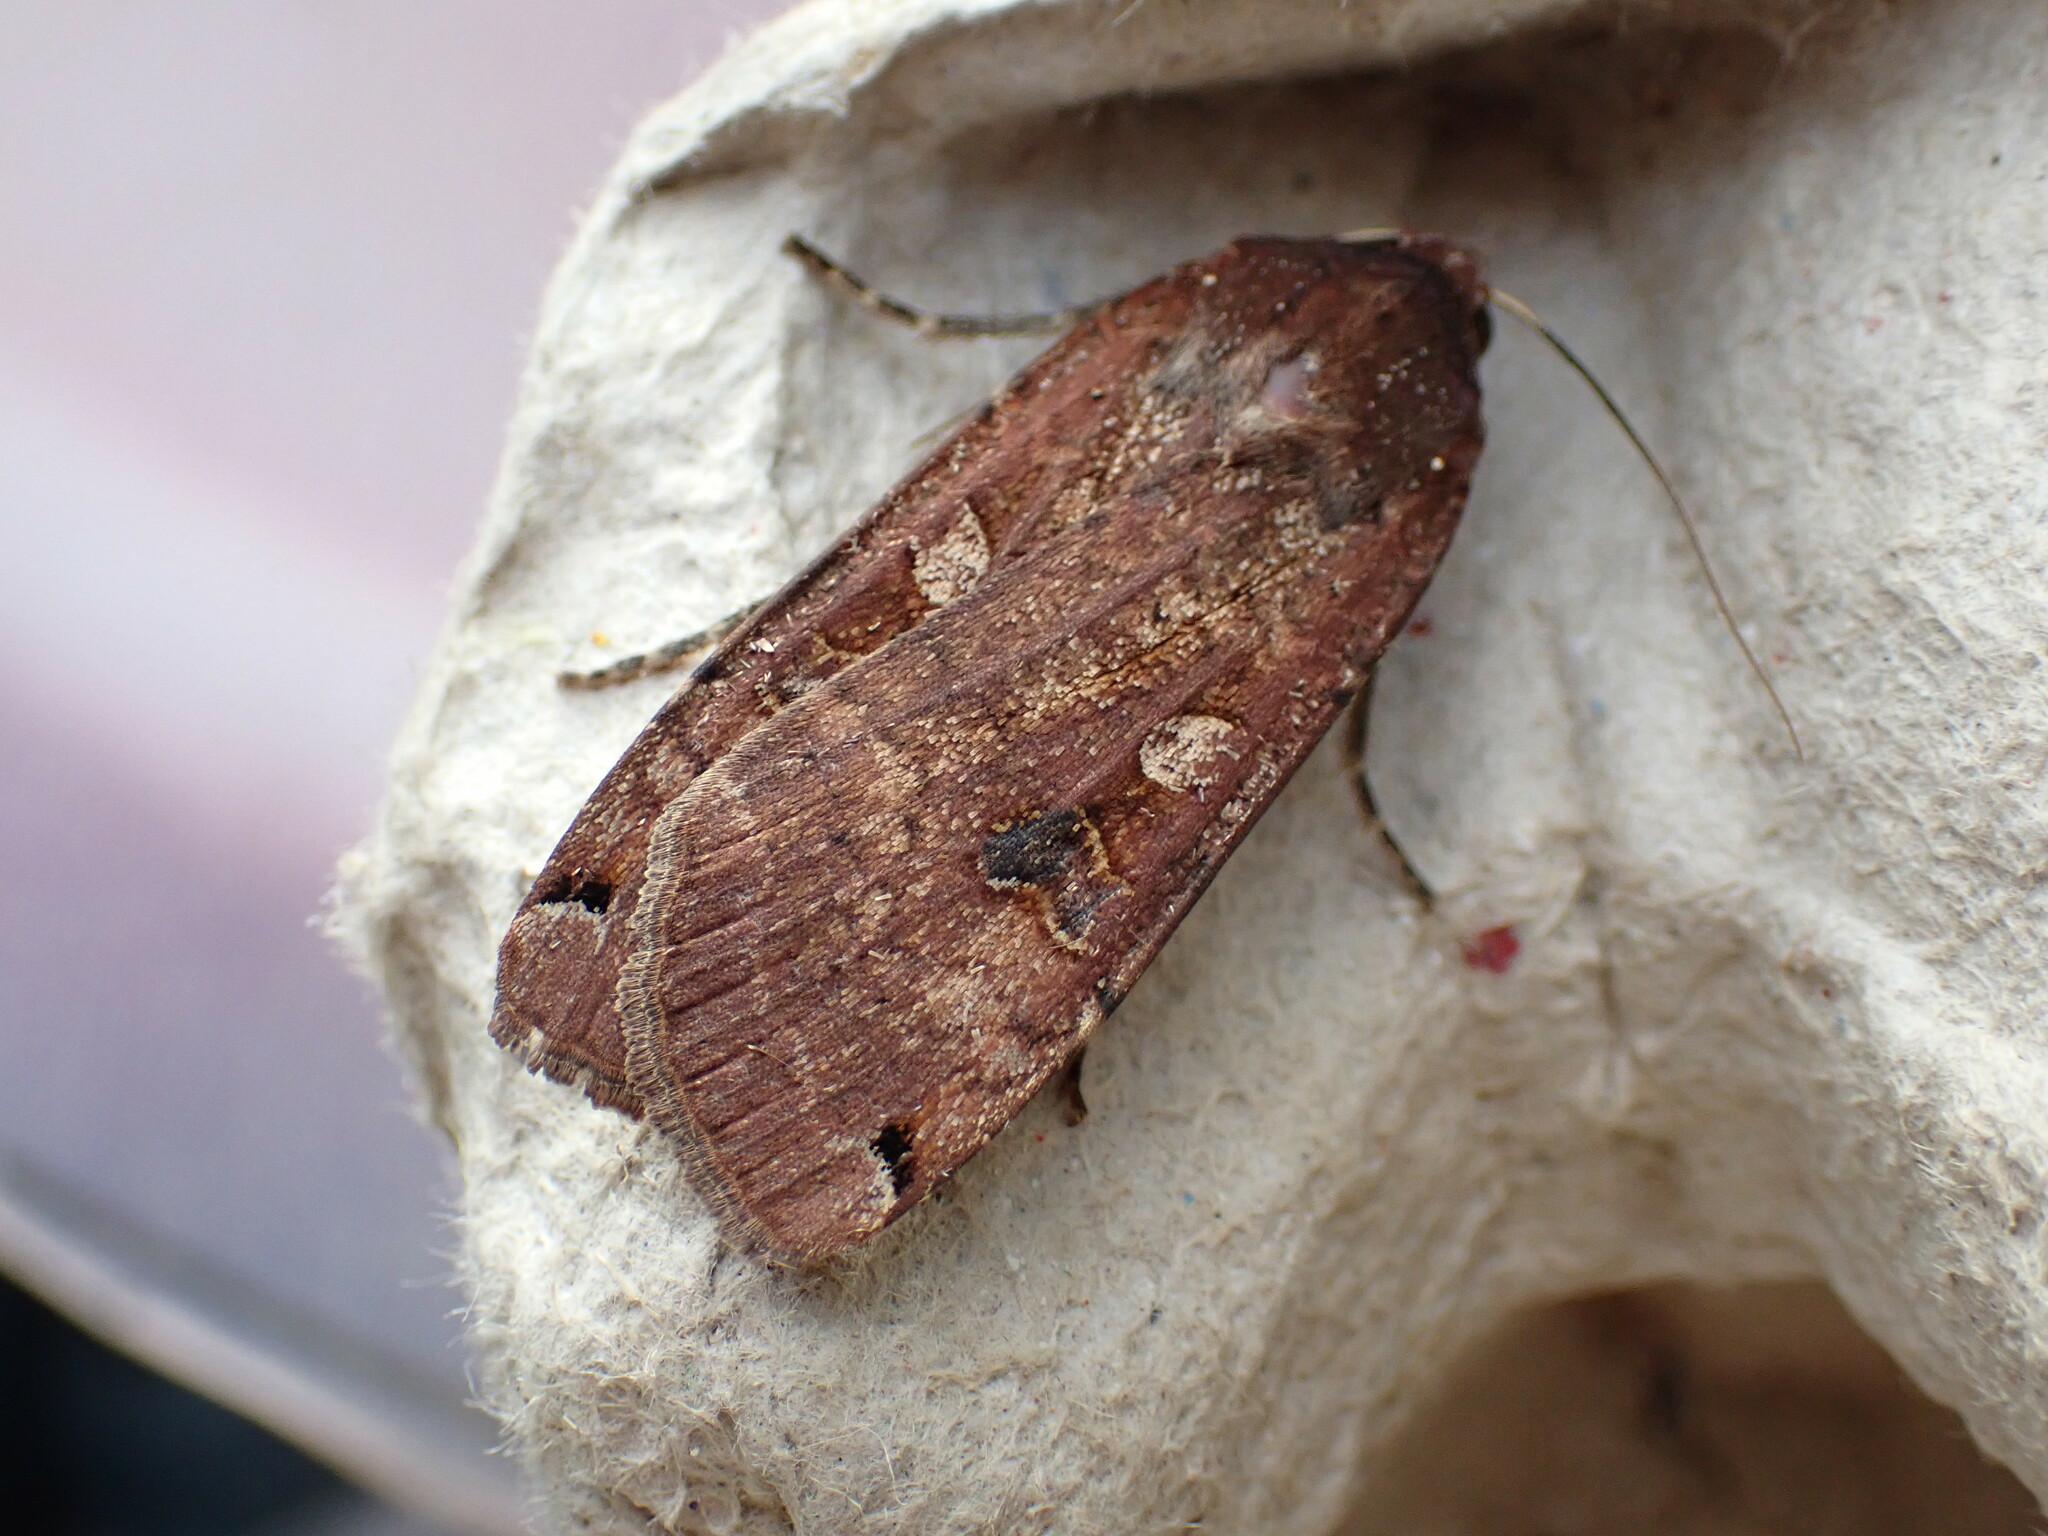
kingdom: Animalia
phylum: Arthropoda
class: Insecta
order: Lepidoptera
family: Noctuidae
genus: Noctua
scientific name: Noctua pronuba
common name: Large yellow underwing
